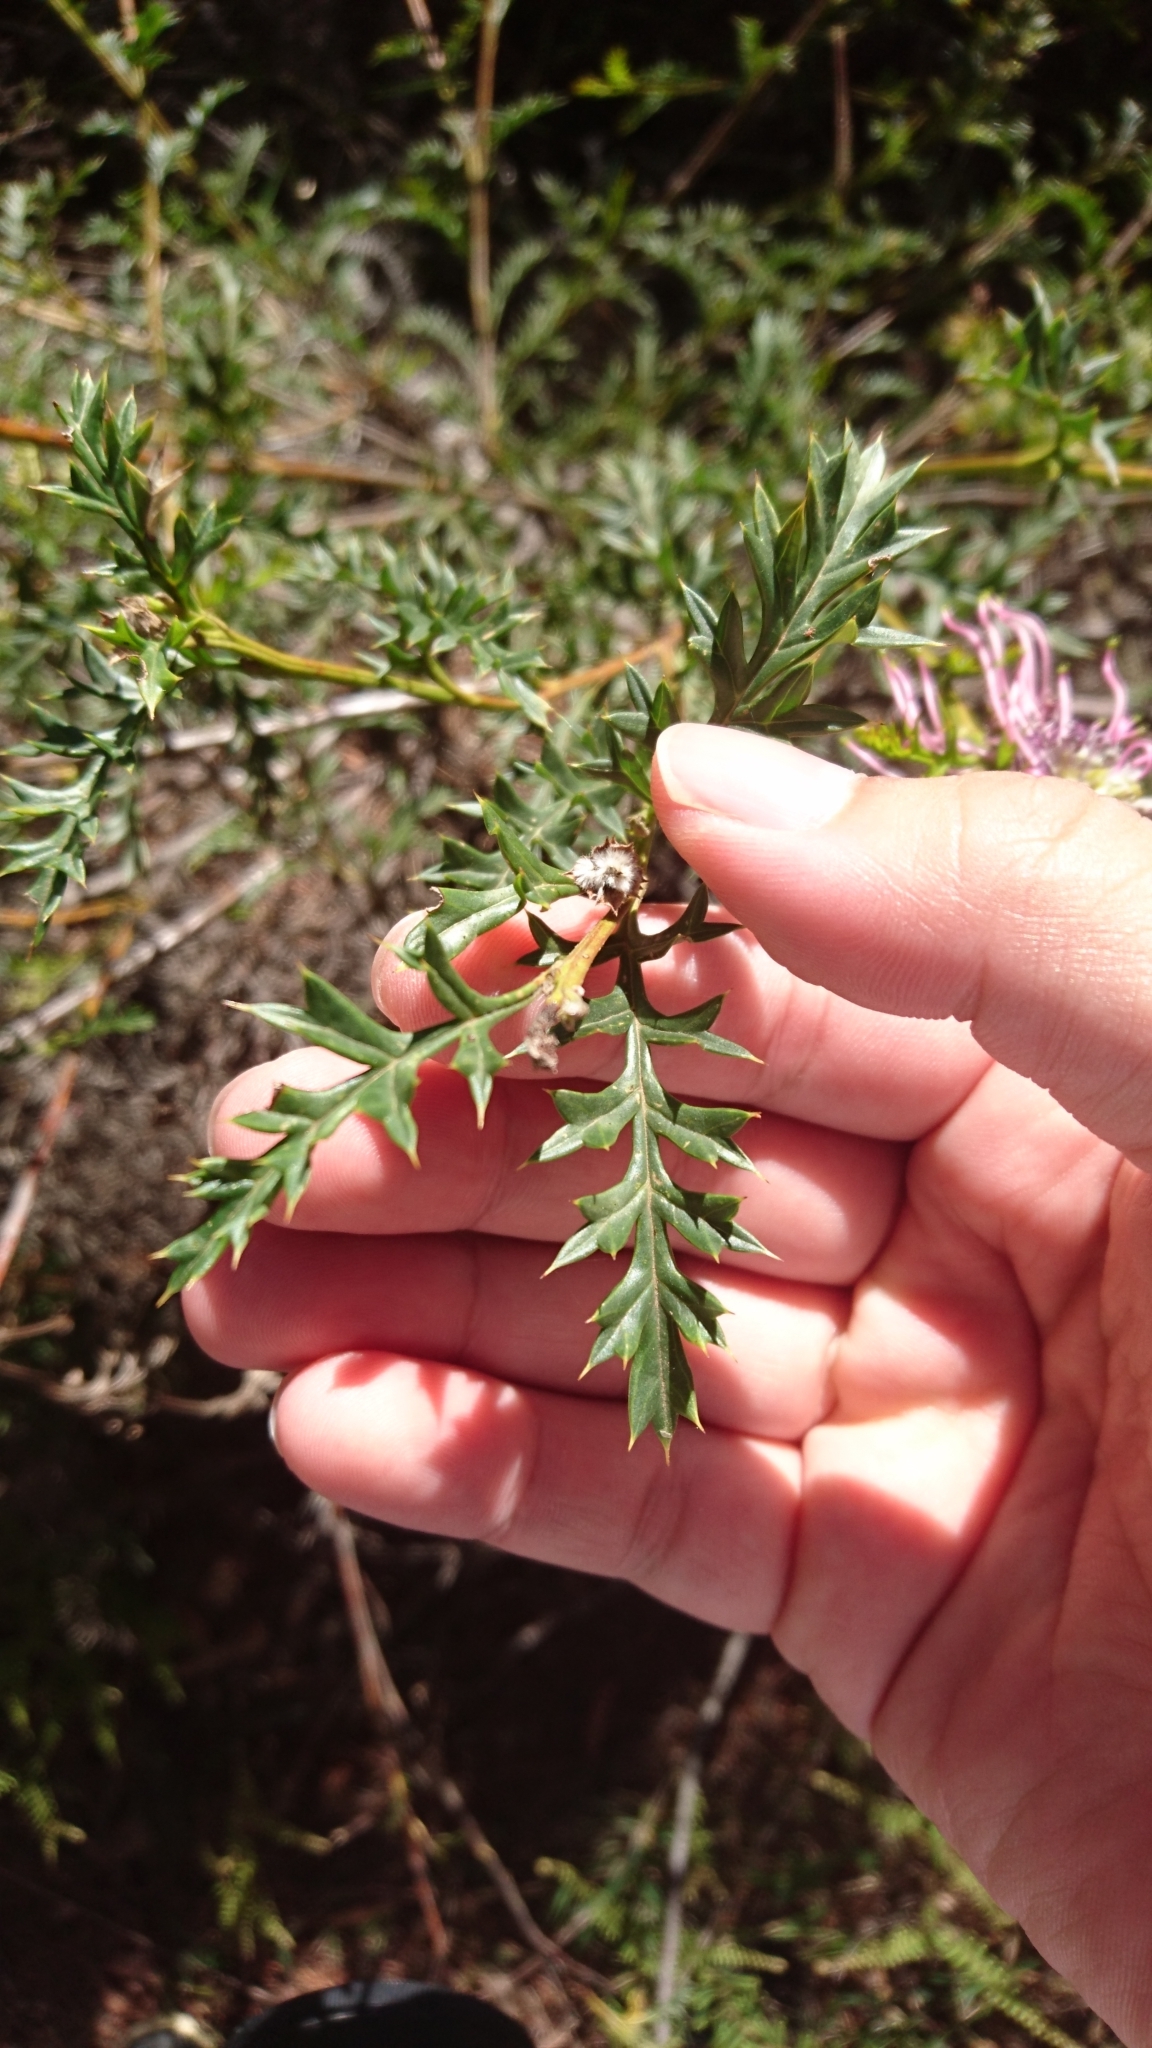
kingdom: Plantae
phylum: Tracheophyta
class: Magnoliopsida
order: Proteales
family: Proteaceae
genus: Grevillea
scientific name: Grevillea acanthifolia
